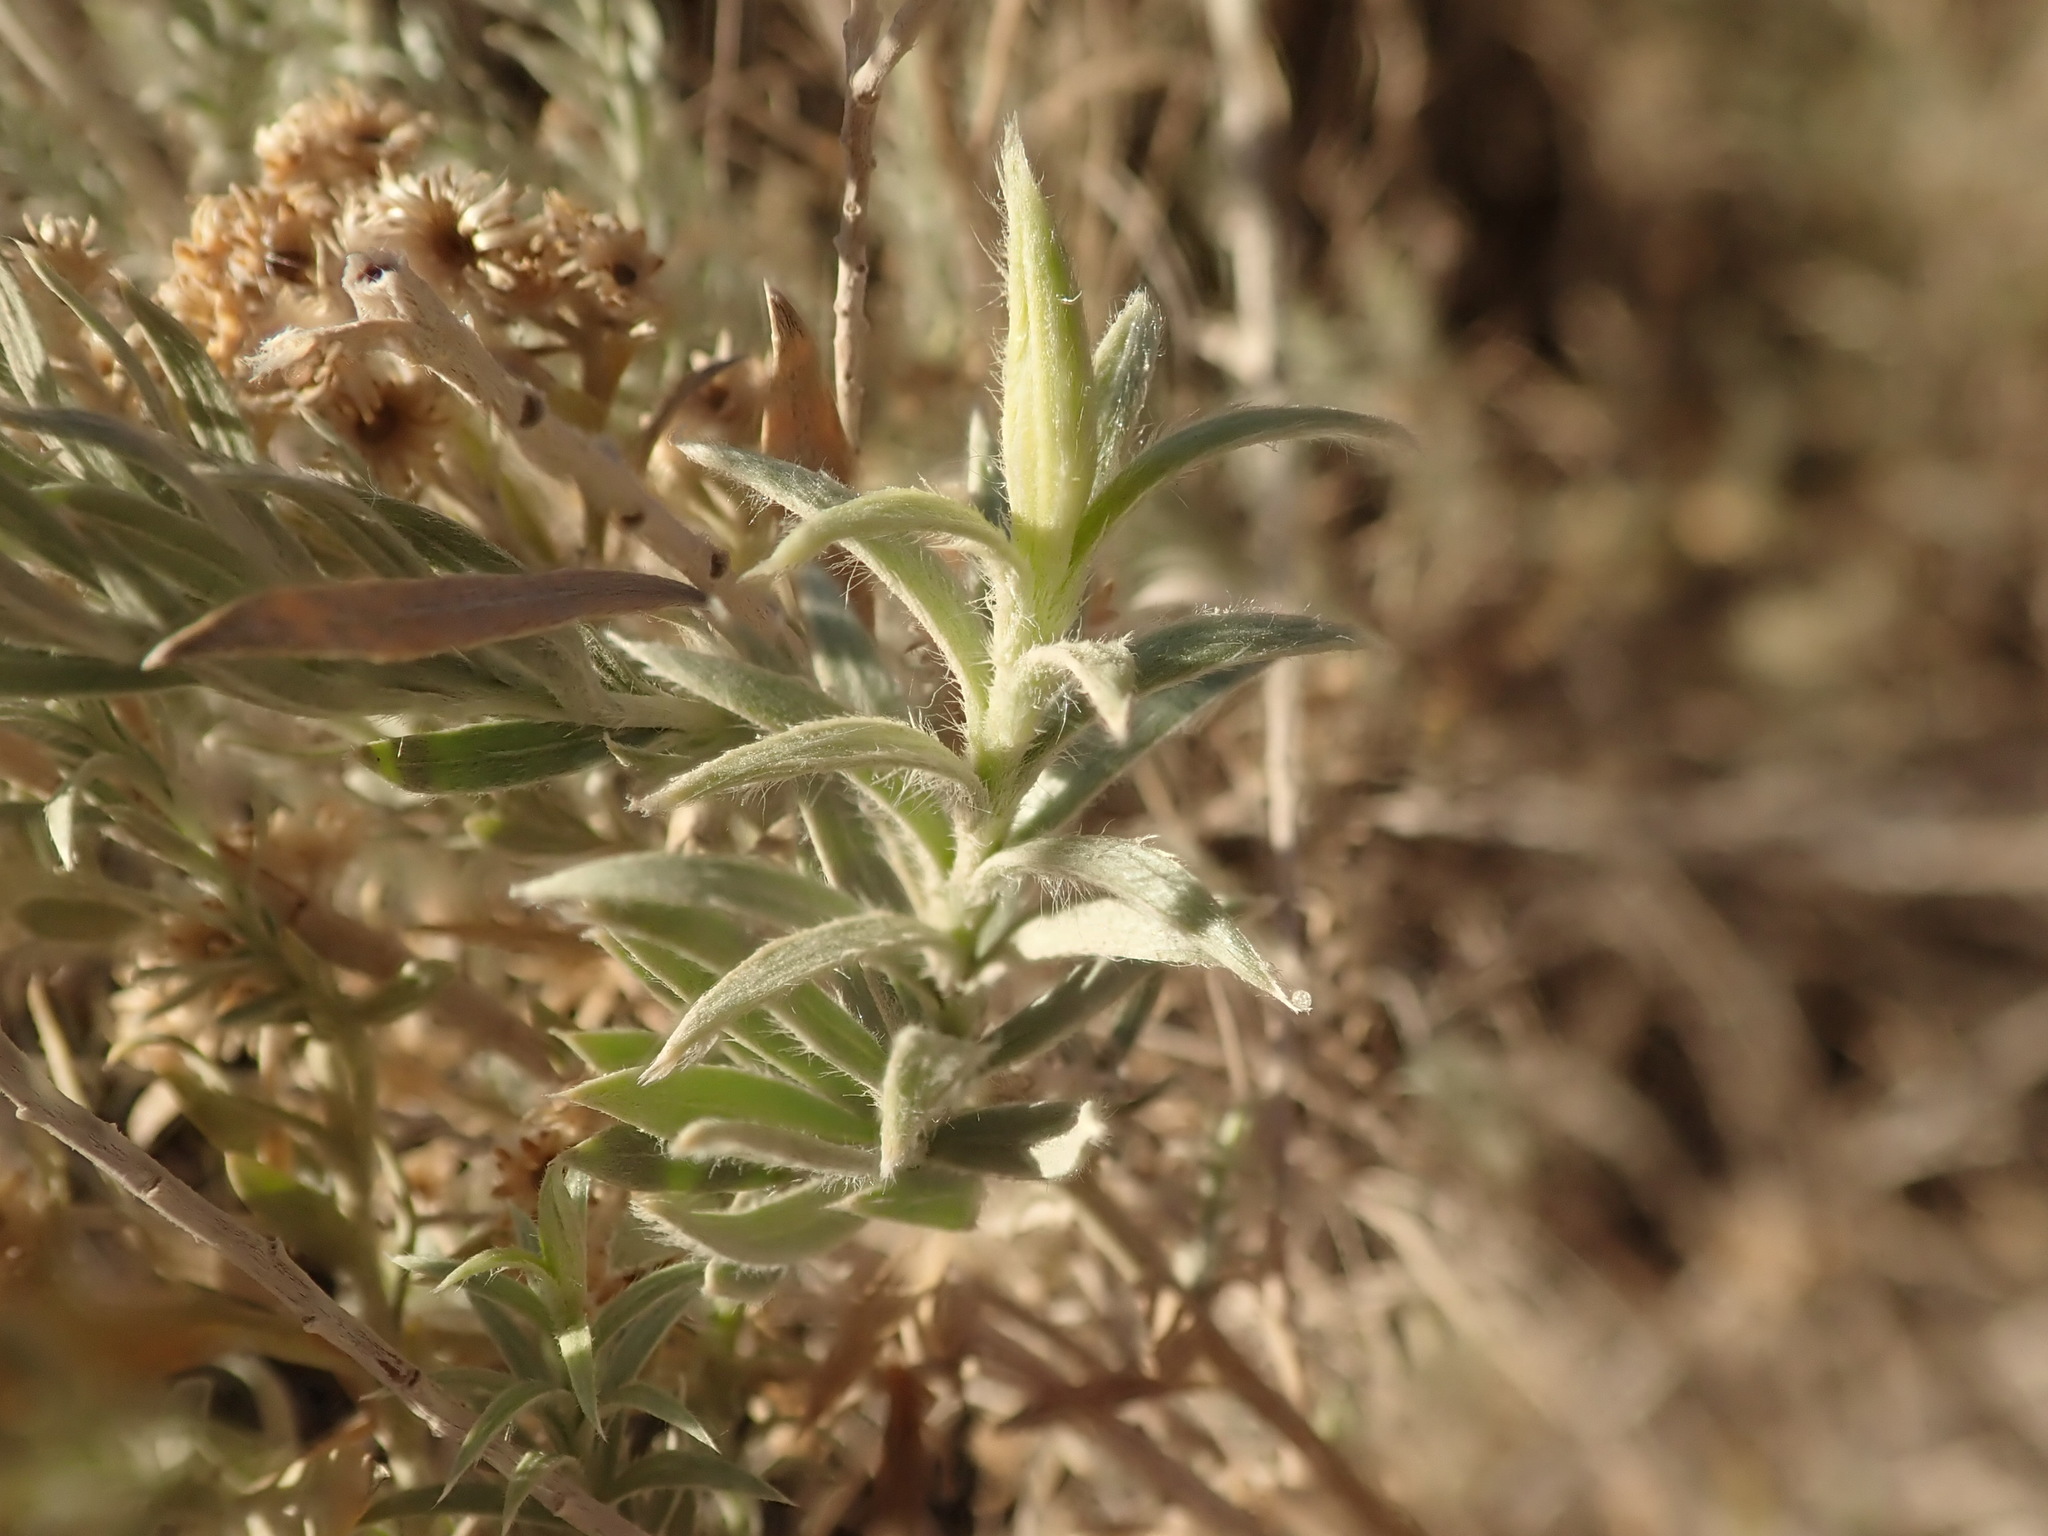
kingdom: Plantae
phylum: Tracheophyta
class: Magnoliopsida
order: Asterales
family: Asteraceae
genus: Pluchea
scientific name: Pluchea sericea
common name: Arrow-weed
